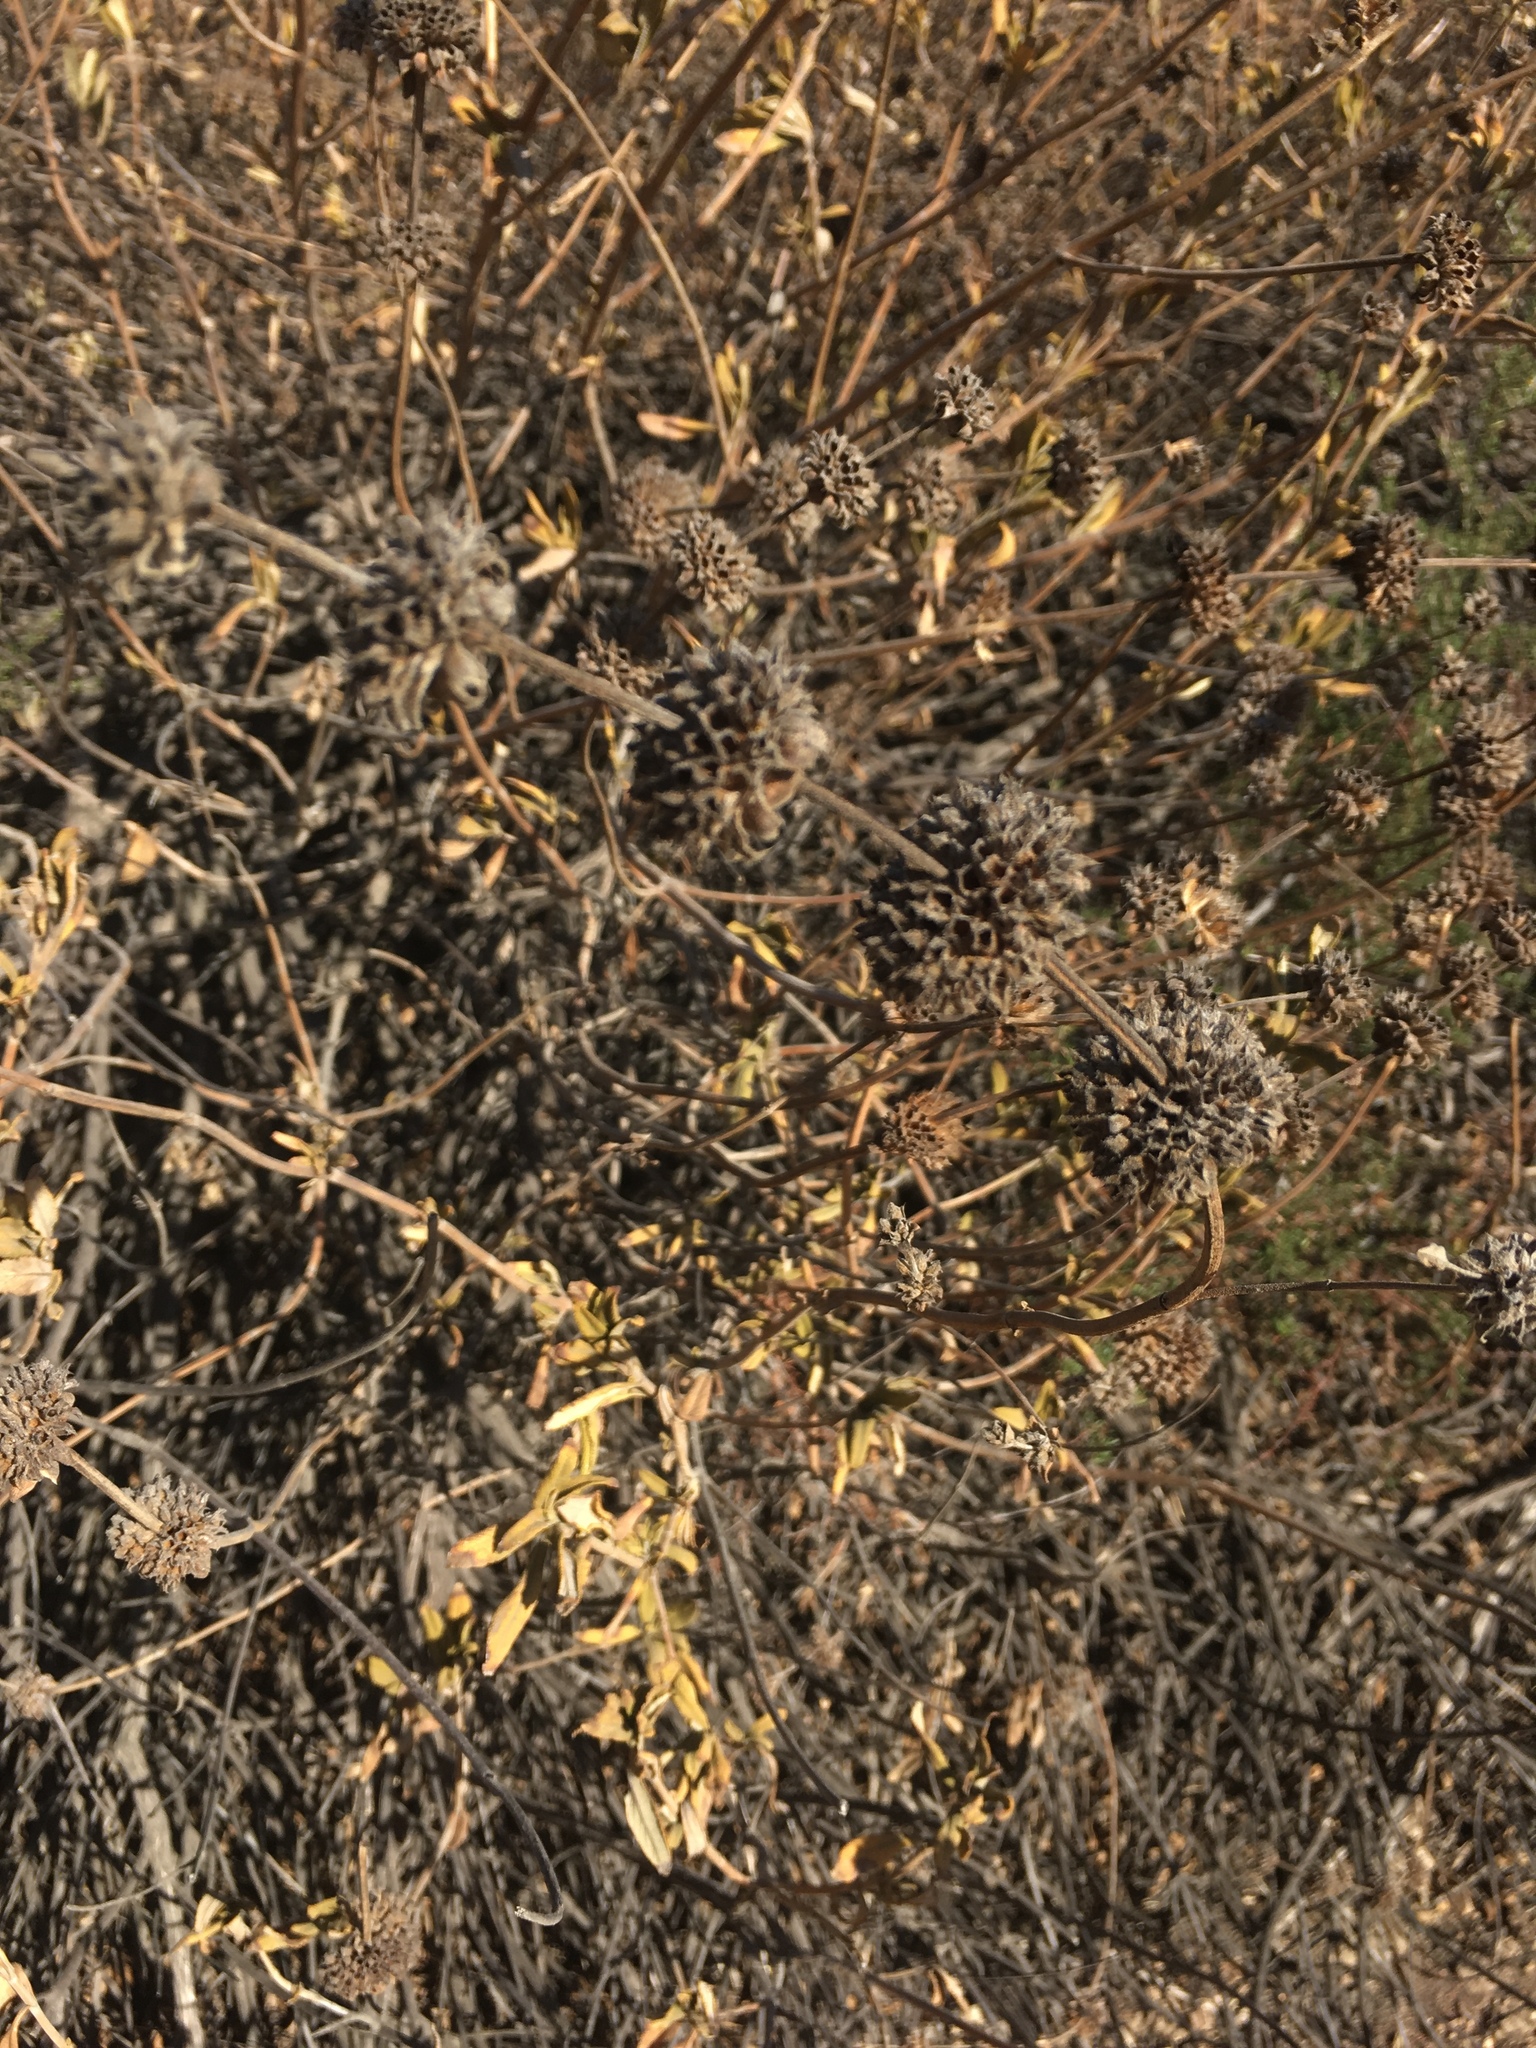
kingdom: Plantae
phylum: Tracheophyta
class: Magnoliopsida
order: Lamiales
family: Lamiaceae
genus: Salvia
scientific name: Salvia mellifera
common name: Black sage
